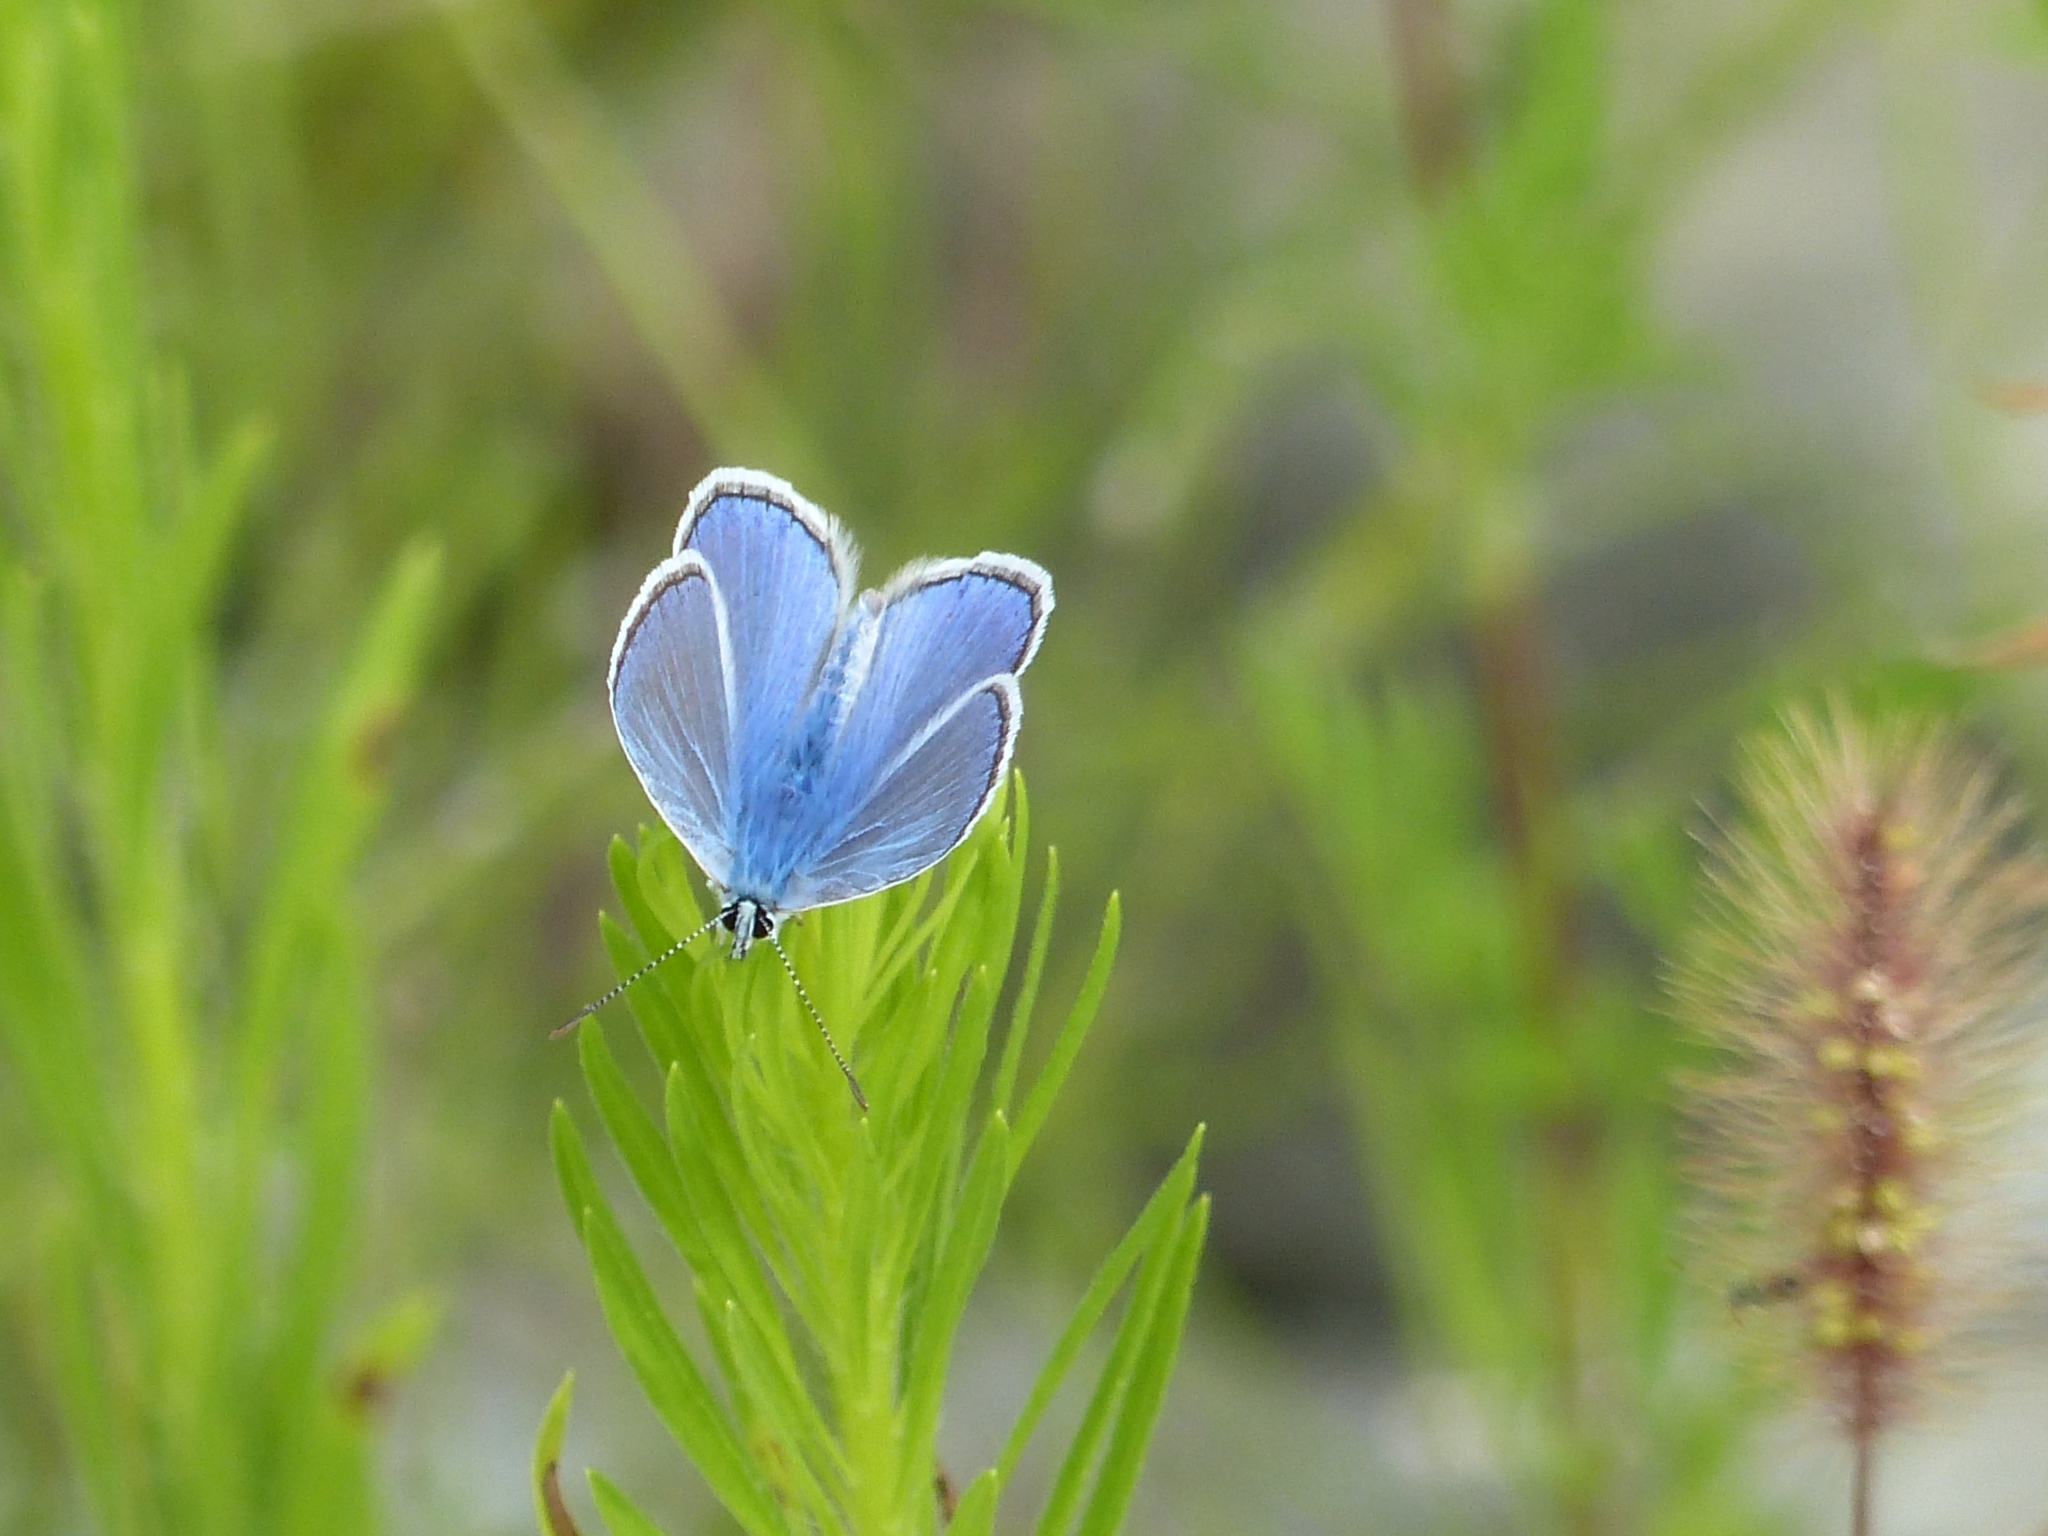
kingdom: Animalia
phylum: Arthropoda
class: Insecta
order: Lepidoptera
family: Lycaenidae
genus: Polyommatus
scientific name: Polyommatus icarus
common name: Common blue
